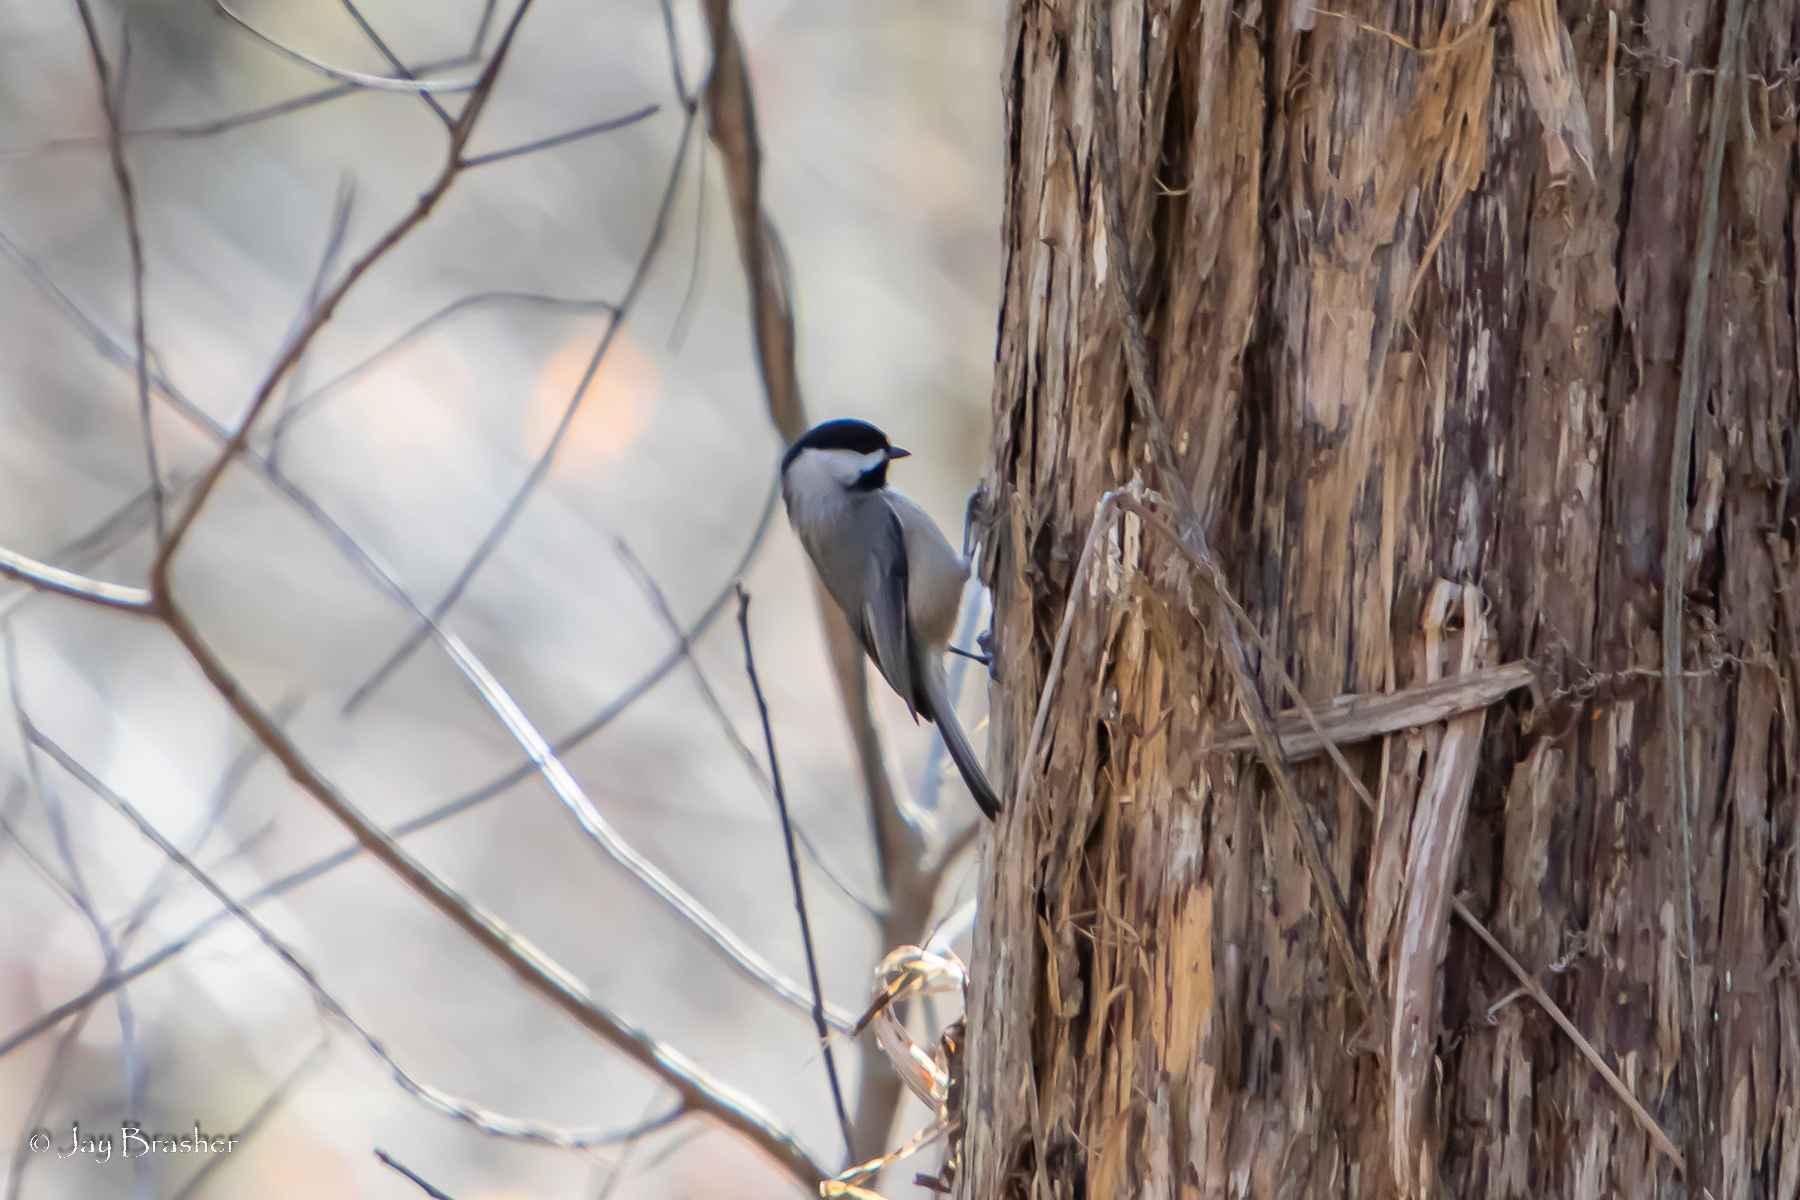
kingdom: Animalia
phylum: Chordata
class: Aves
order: Passeriformes
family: Paridae
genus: Poecile
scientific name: Poecile carolinensis
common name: Carolina chickadee
